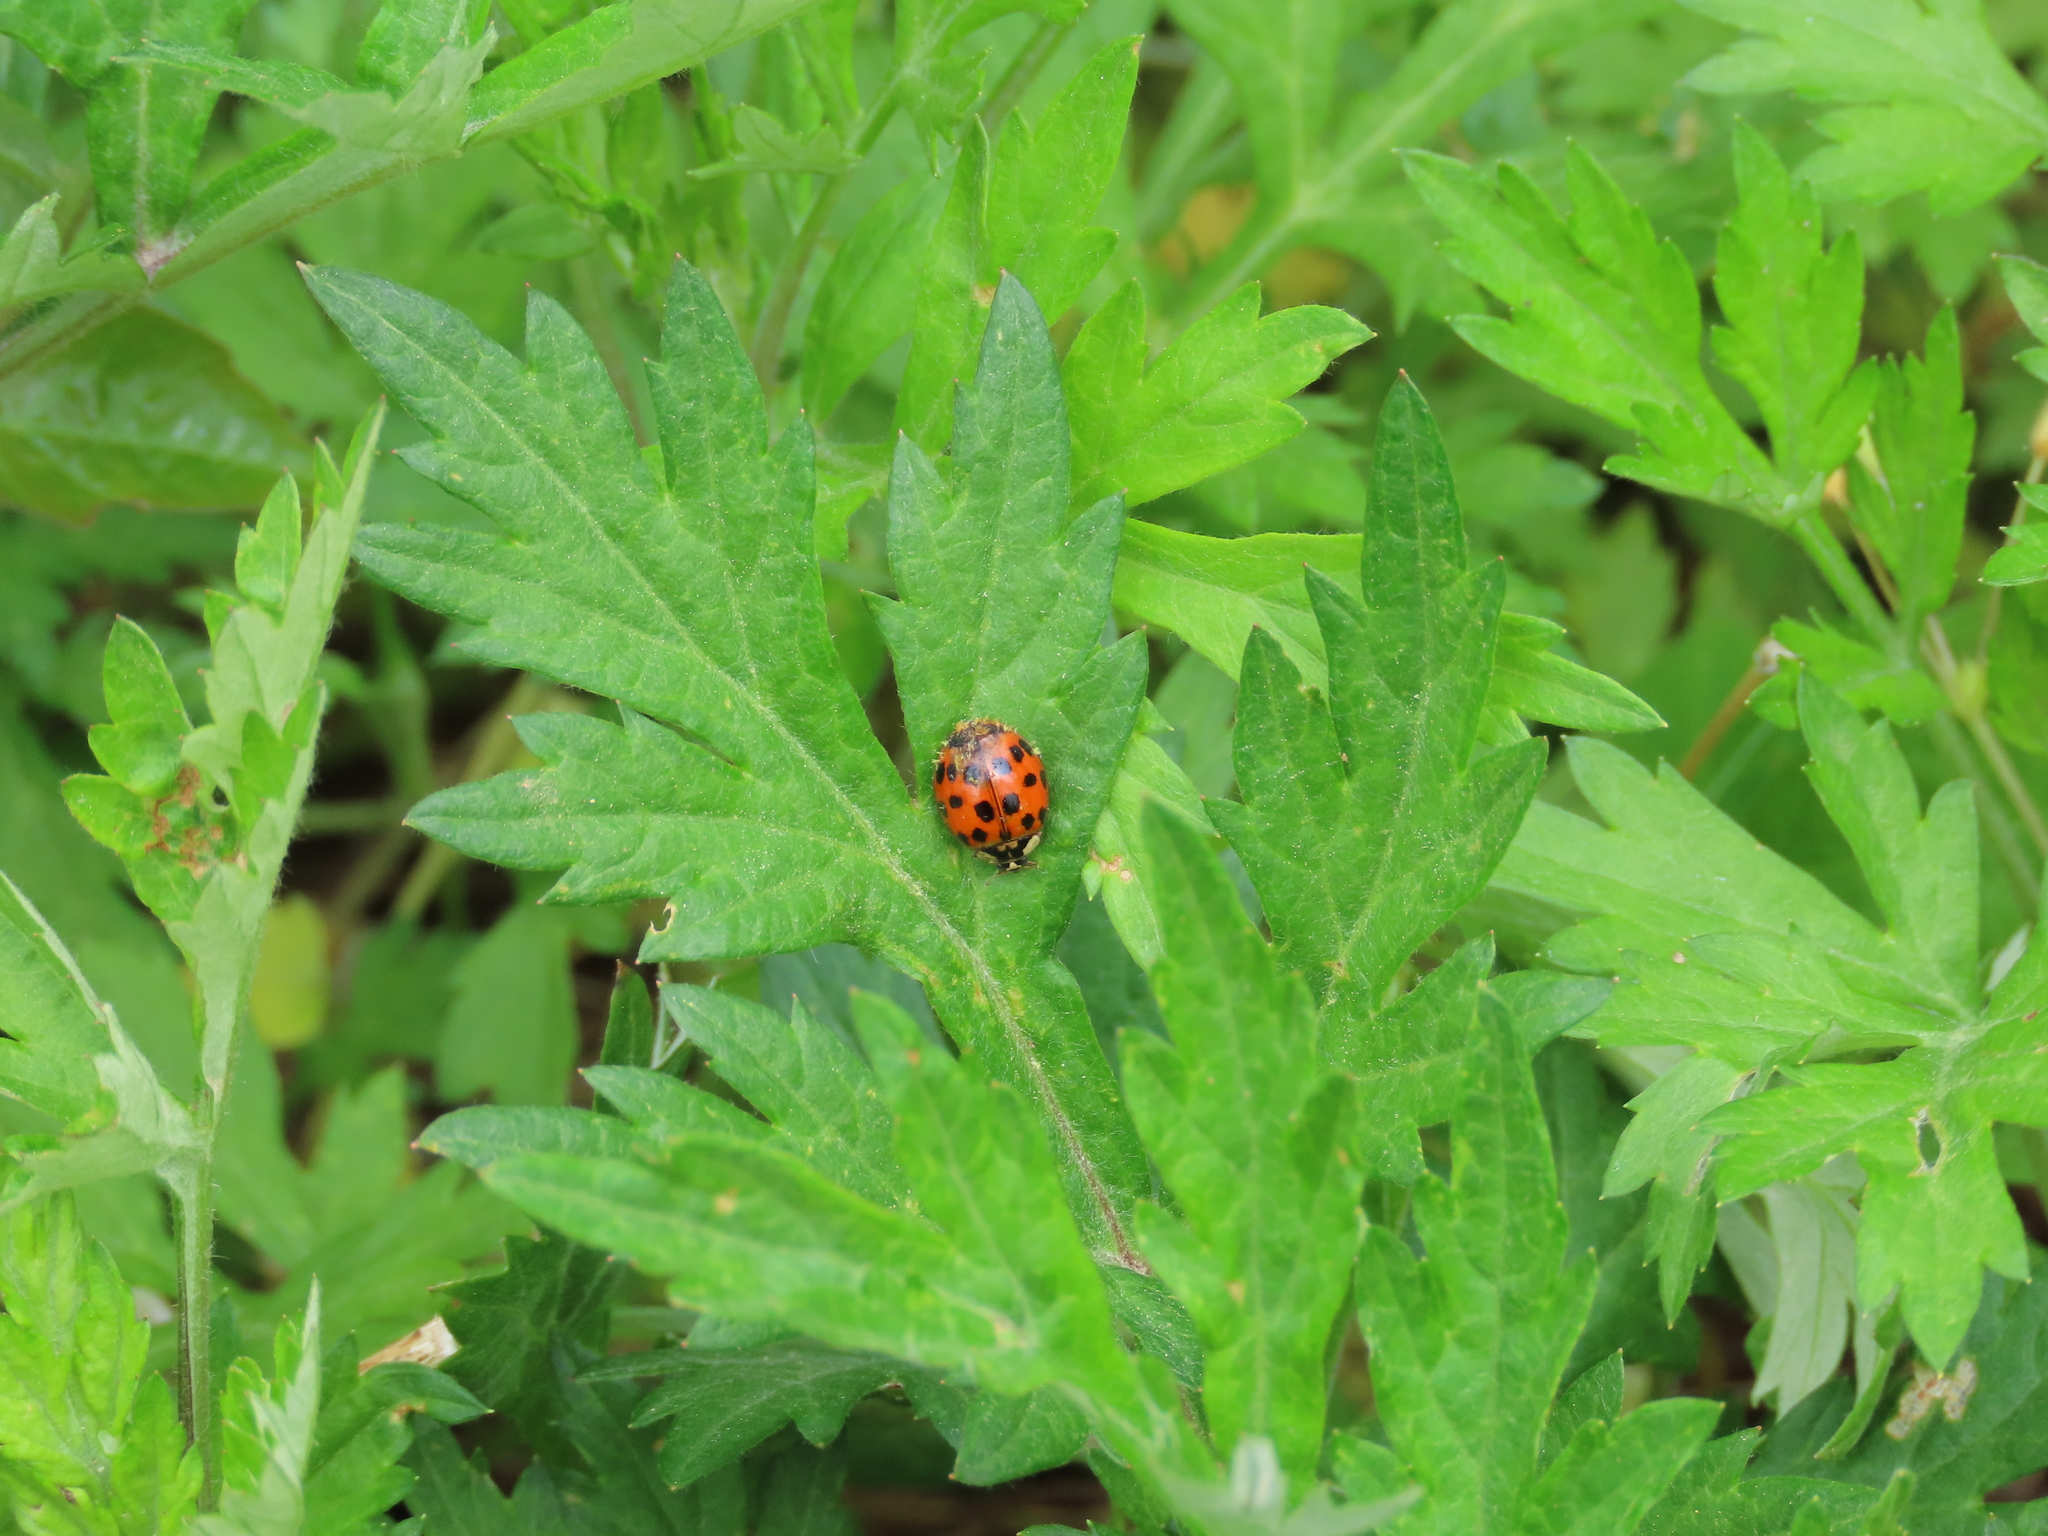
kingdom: Animalia
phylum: Arthropoda
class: Insecta
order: Coleoptera
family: Coccinellidae
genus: Harmonia
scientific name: Harmonia axyridis
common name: Harlequin ladybird
